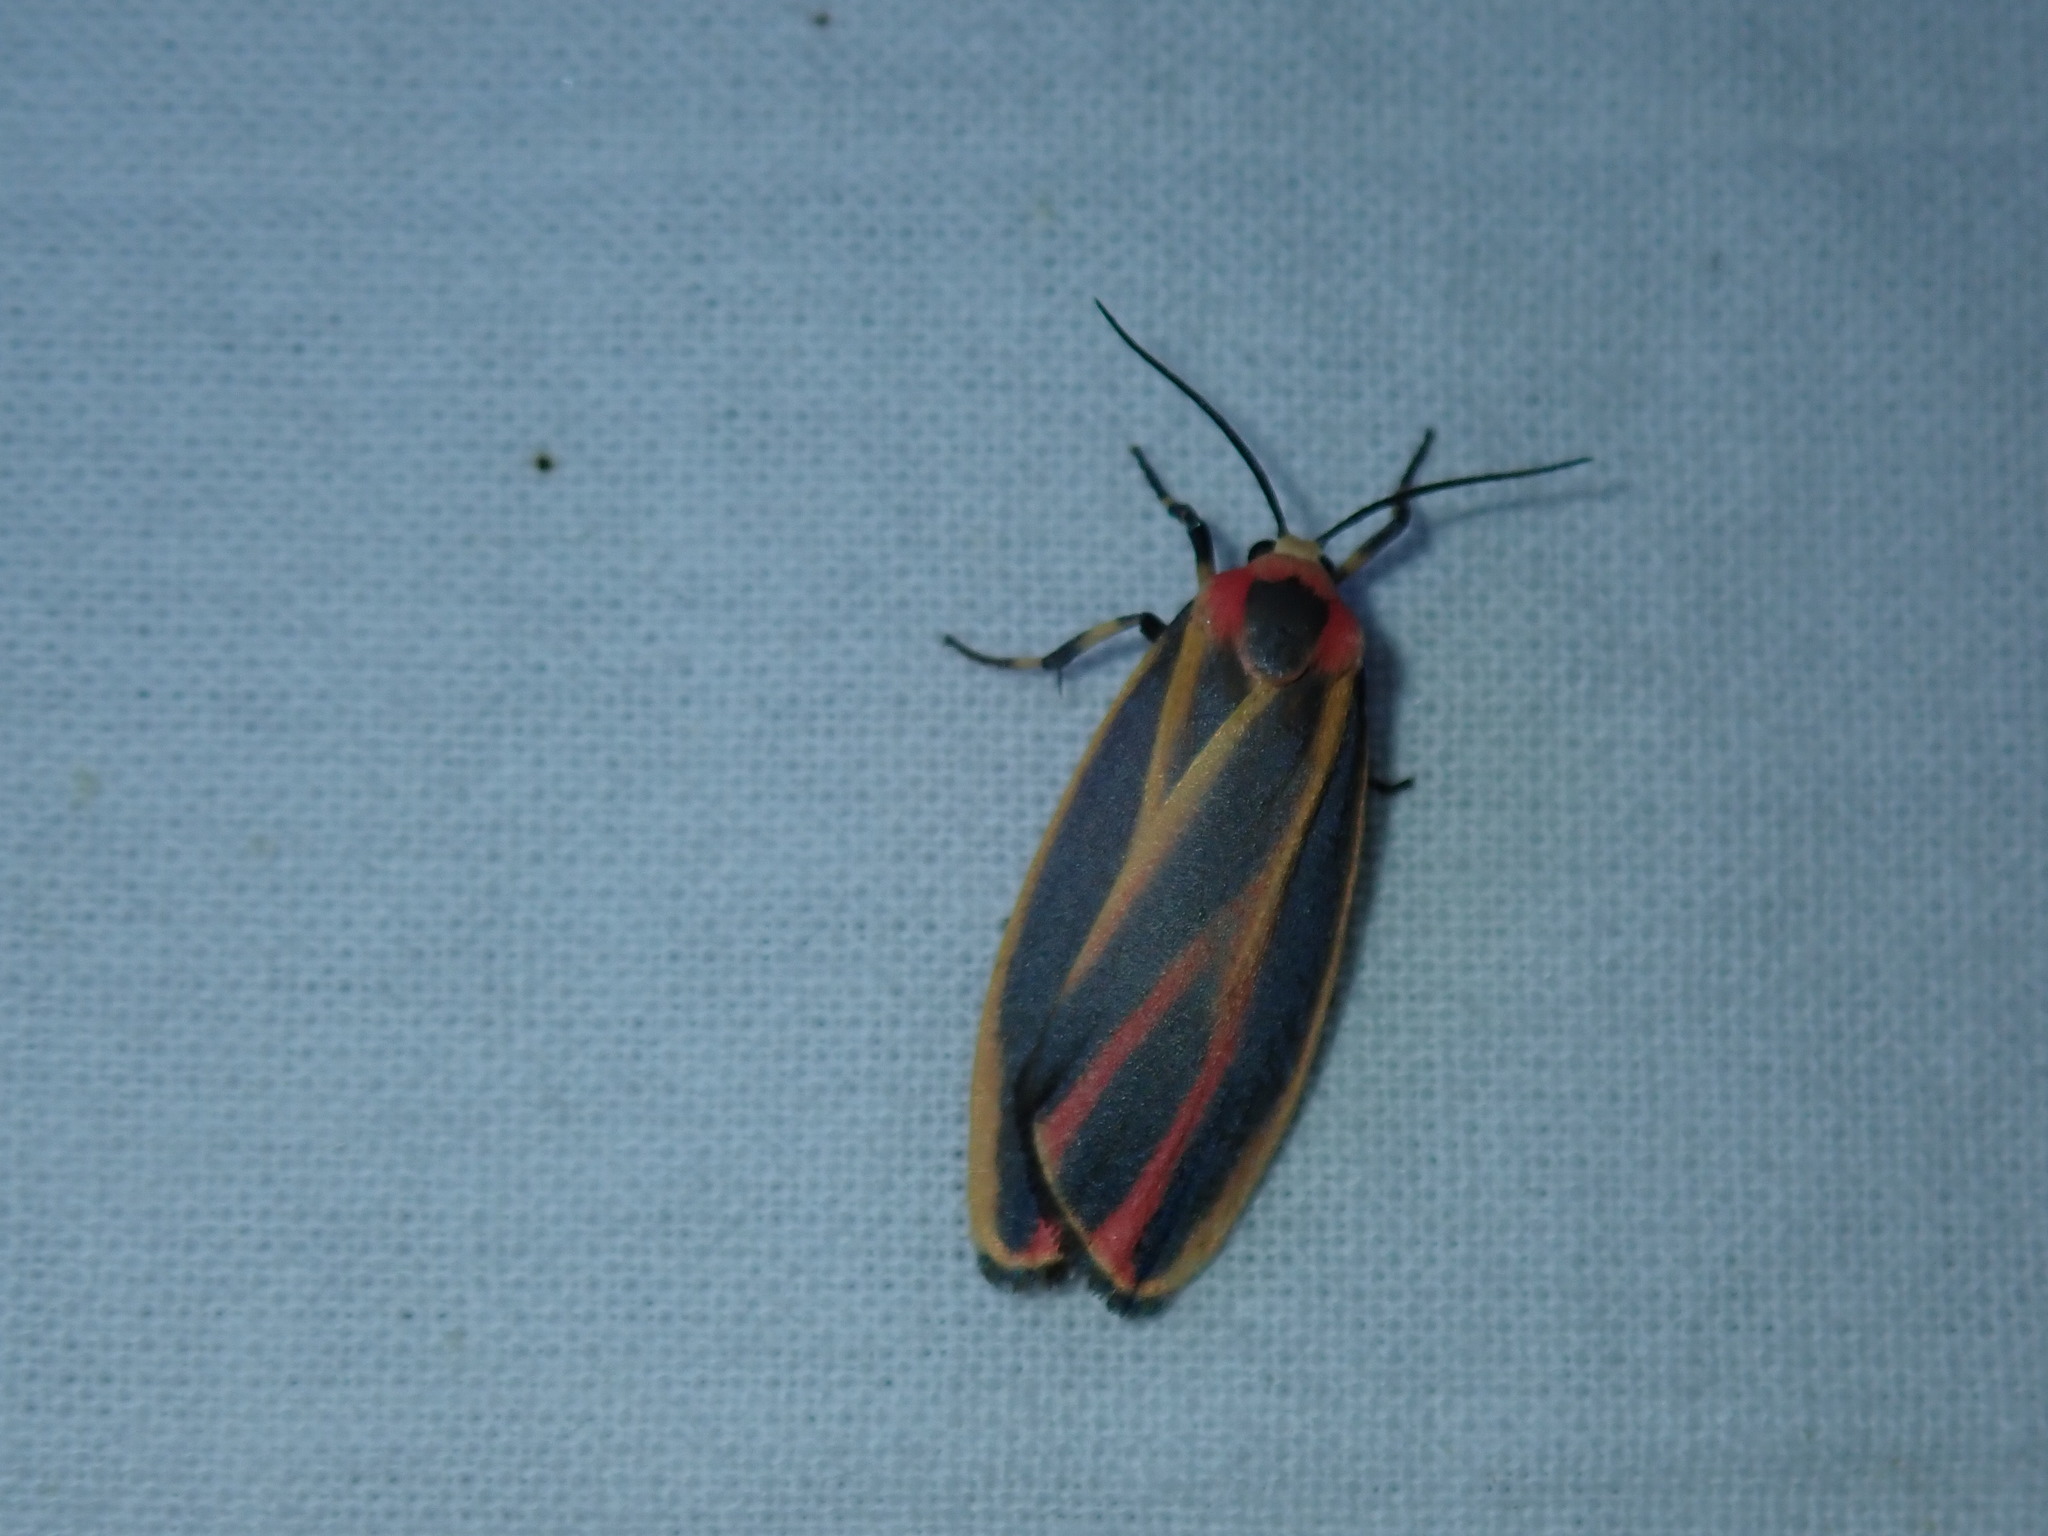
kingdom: Animalia
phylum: Arthropoda
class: Insecta
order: Lepidoptera
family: Erebidae
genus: Hypoprepia
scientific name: Hypoprepia fucosa
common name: Painted lichen moth
